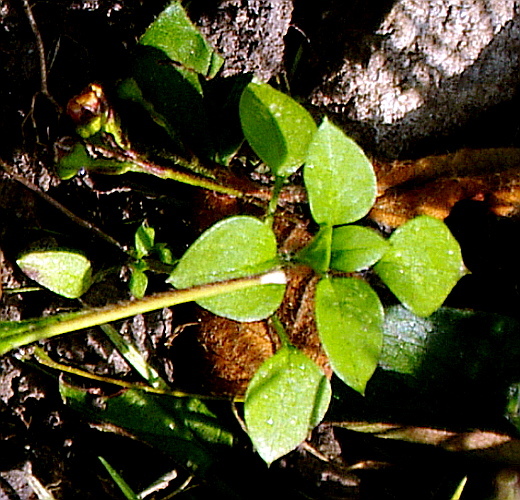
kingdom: Plantae
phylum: Tracheophyta
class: Magnoliopsida
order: Caryophyllales
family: Caryophyllaceae
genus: Stellaria
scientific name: Stellaria media
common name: Common chickweed
